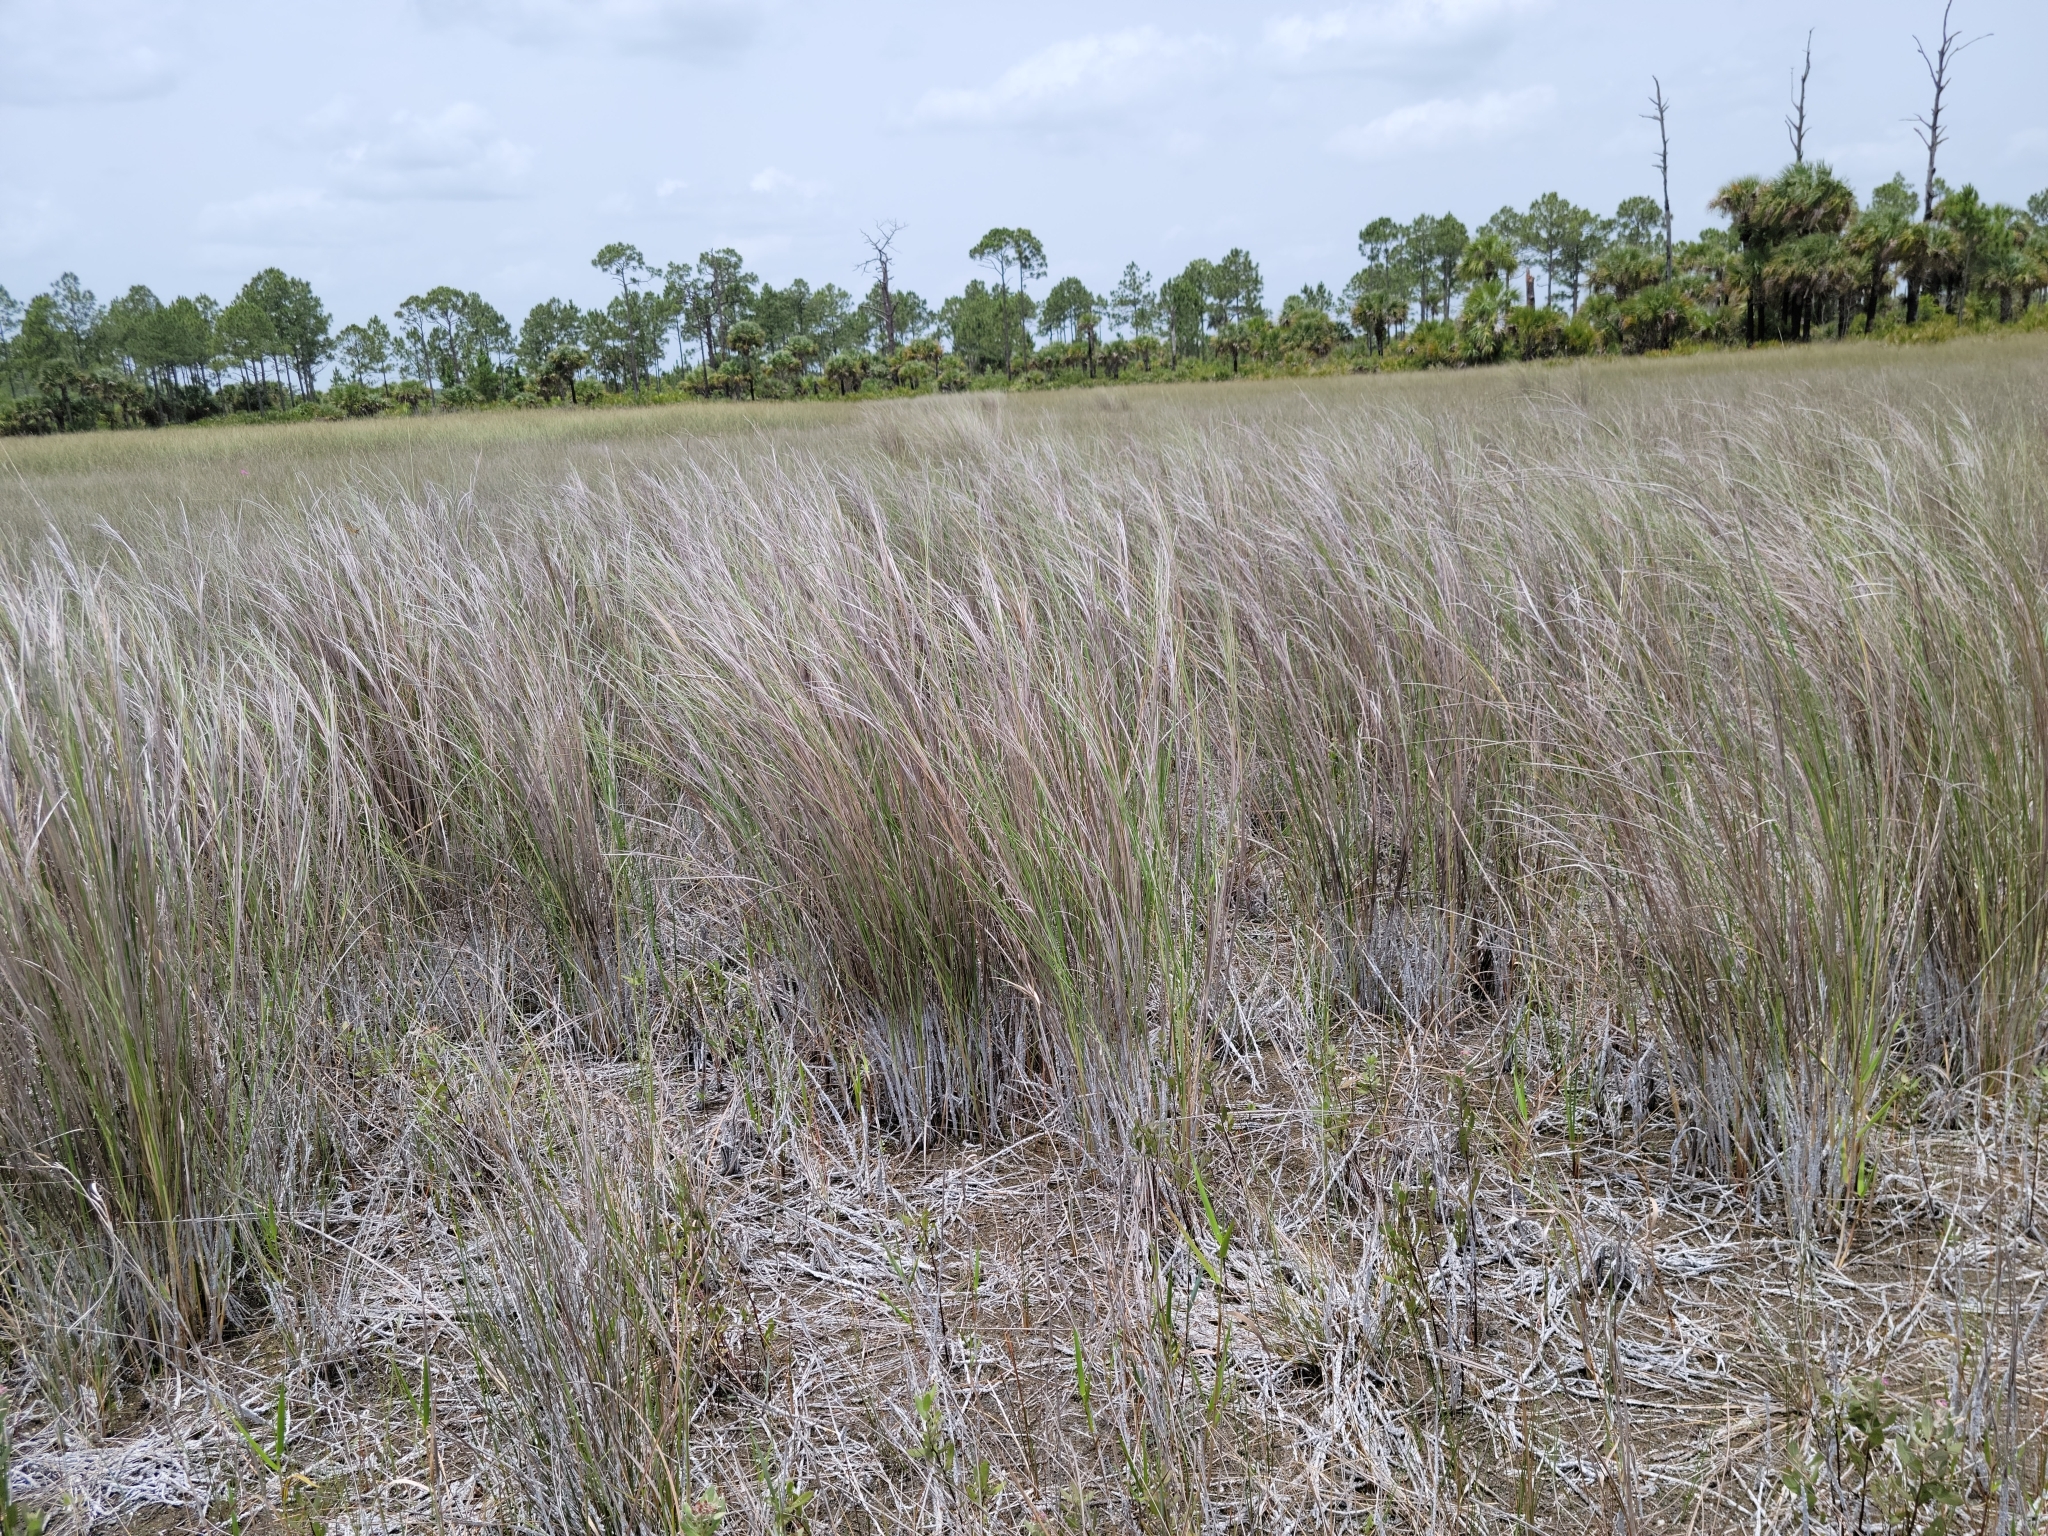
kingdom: Plantae
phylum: Tracheophyta
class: Liliopsida
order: Poales
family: Poaceae
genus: Sporobolus
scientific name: Sporobolus bakeri
